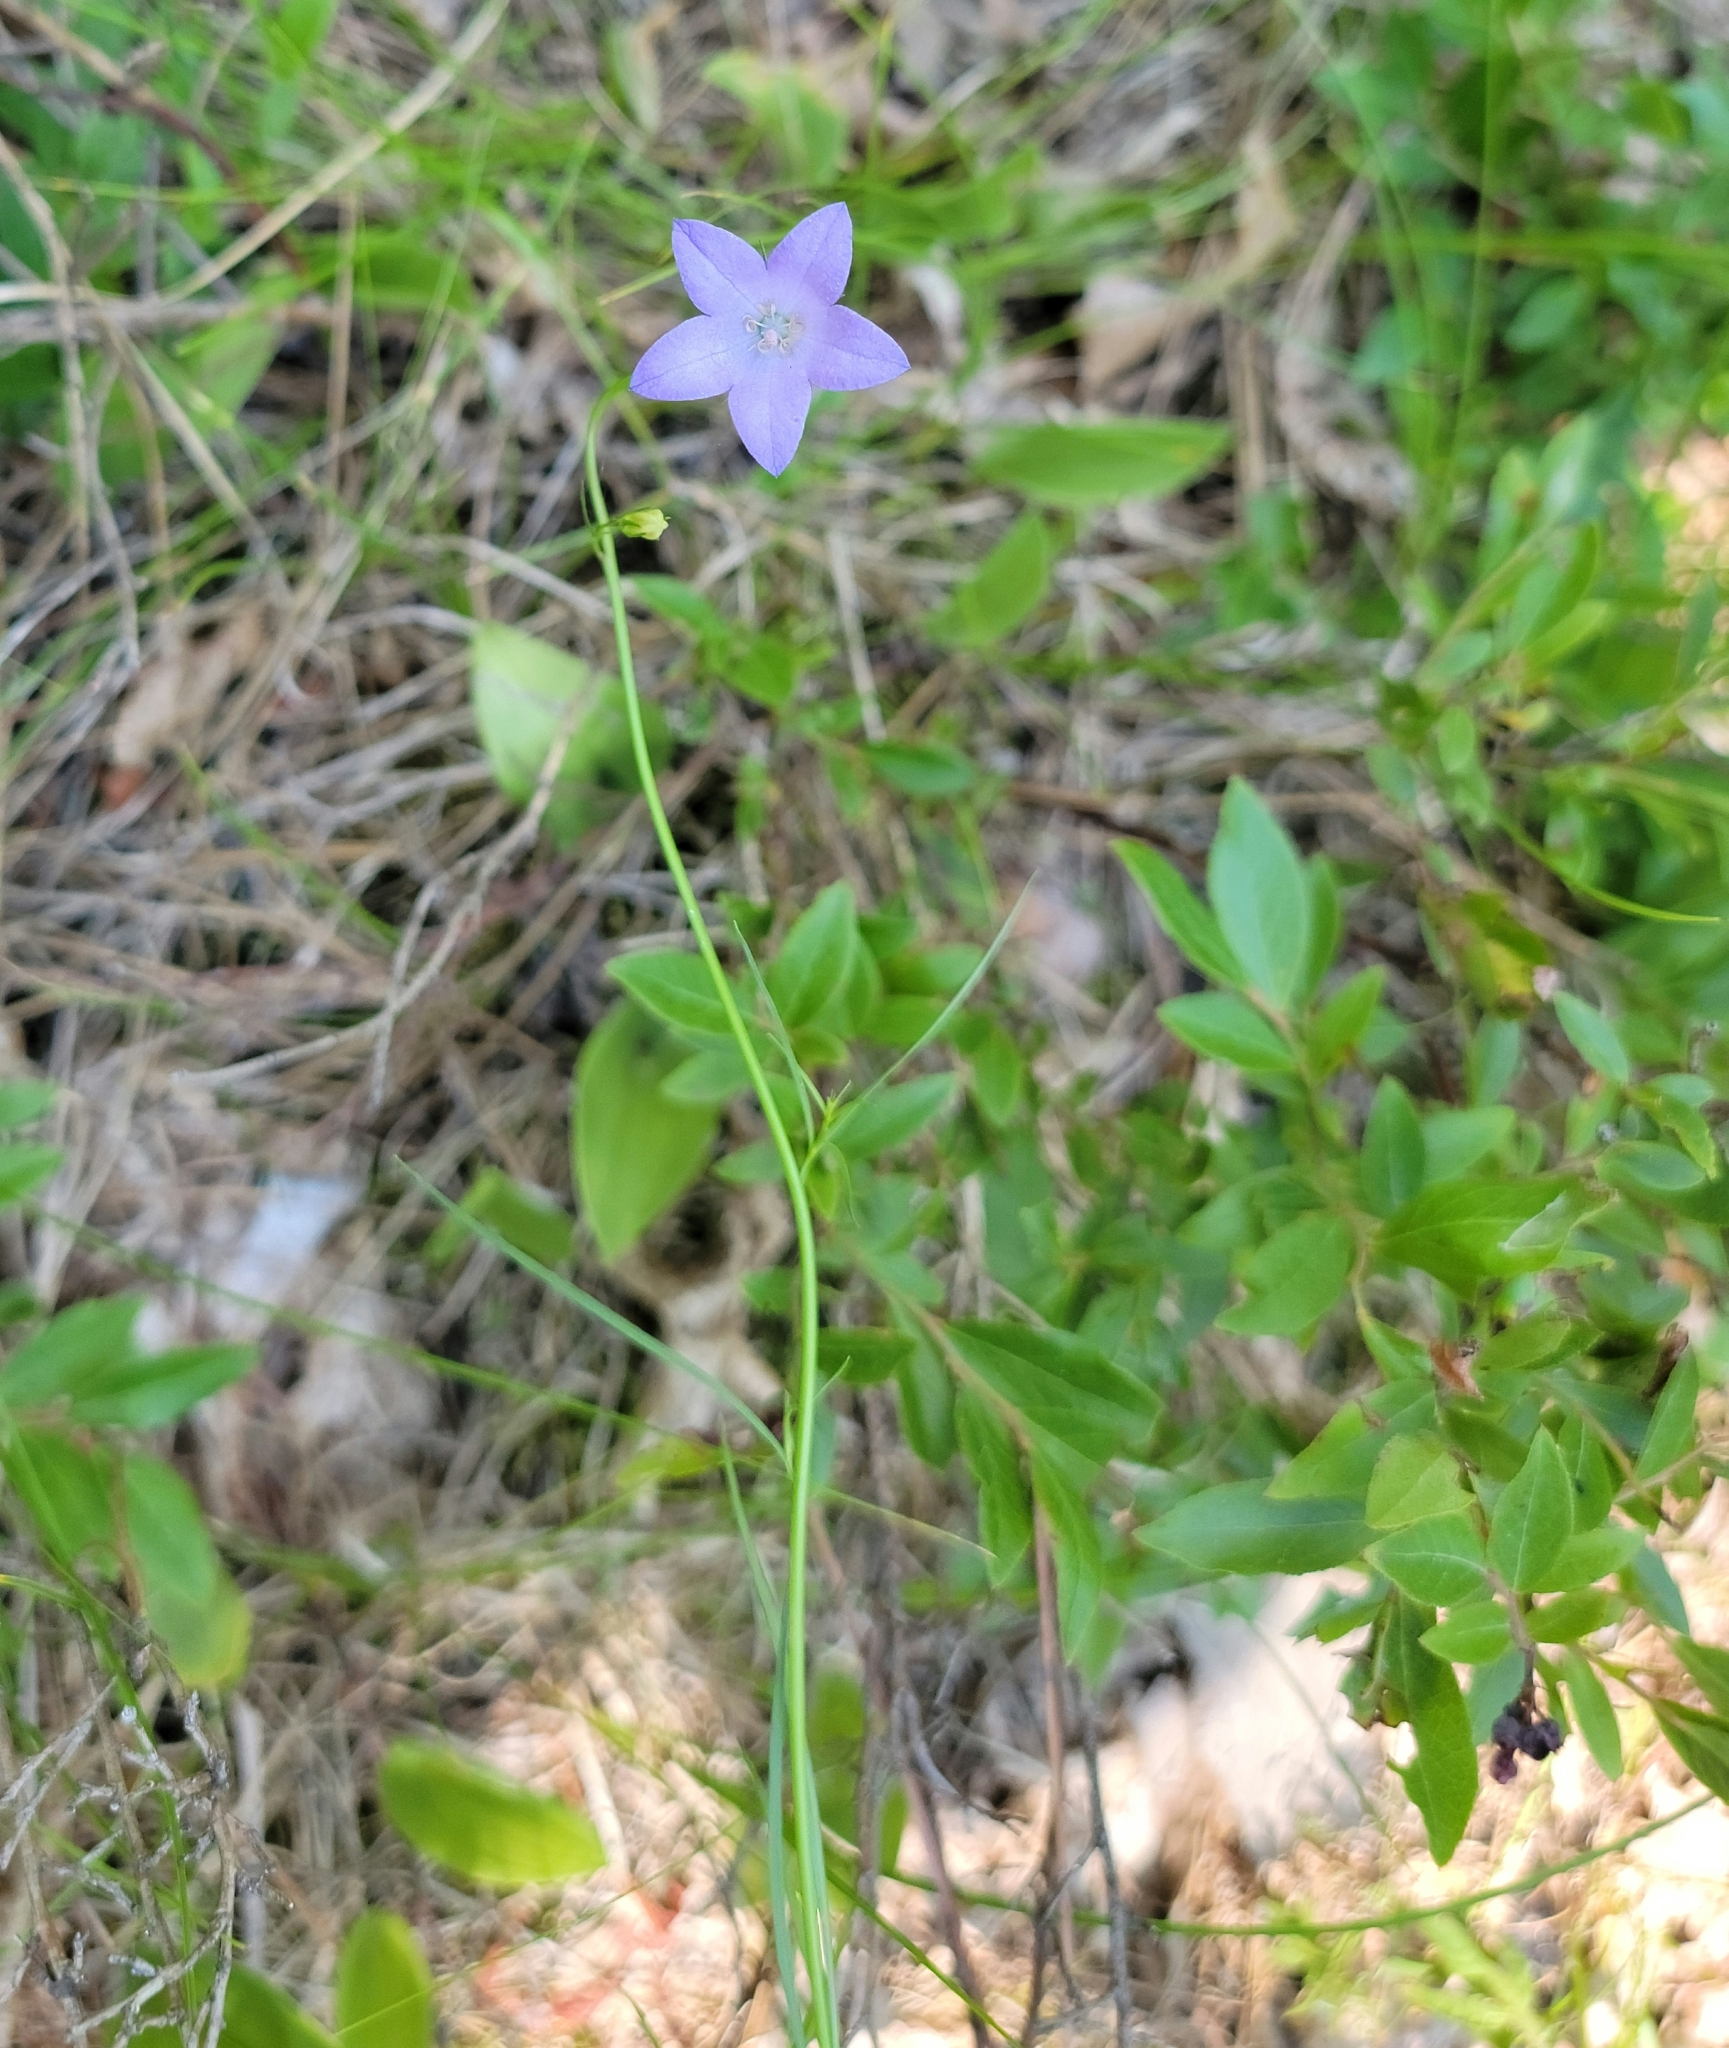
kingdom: Plantae
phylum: Tracheophyta
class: Magnoliopsida
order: Asterales
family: Campanulaceae
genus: Campanula
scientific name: Campanula intercedens
